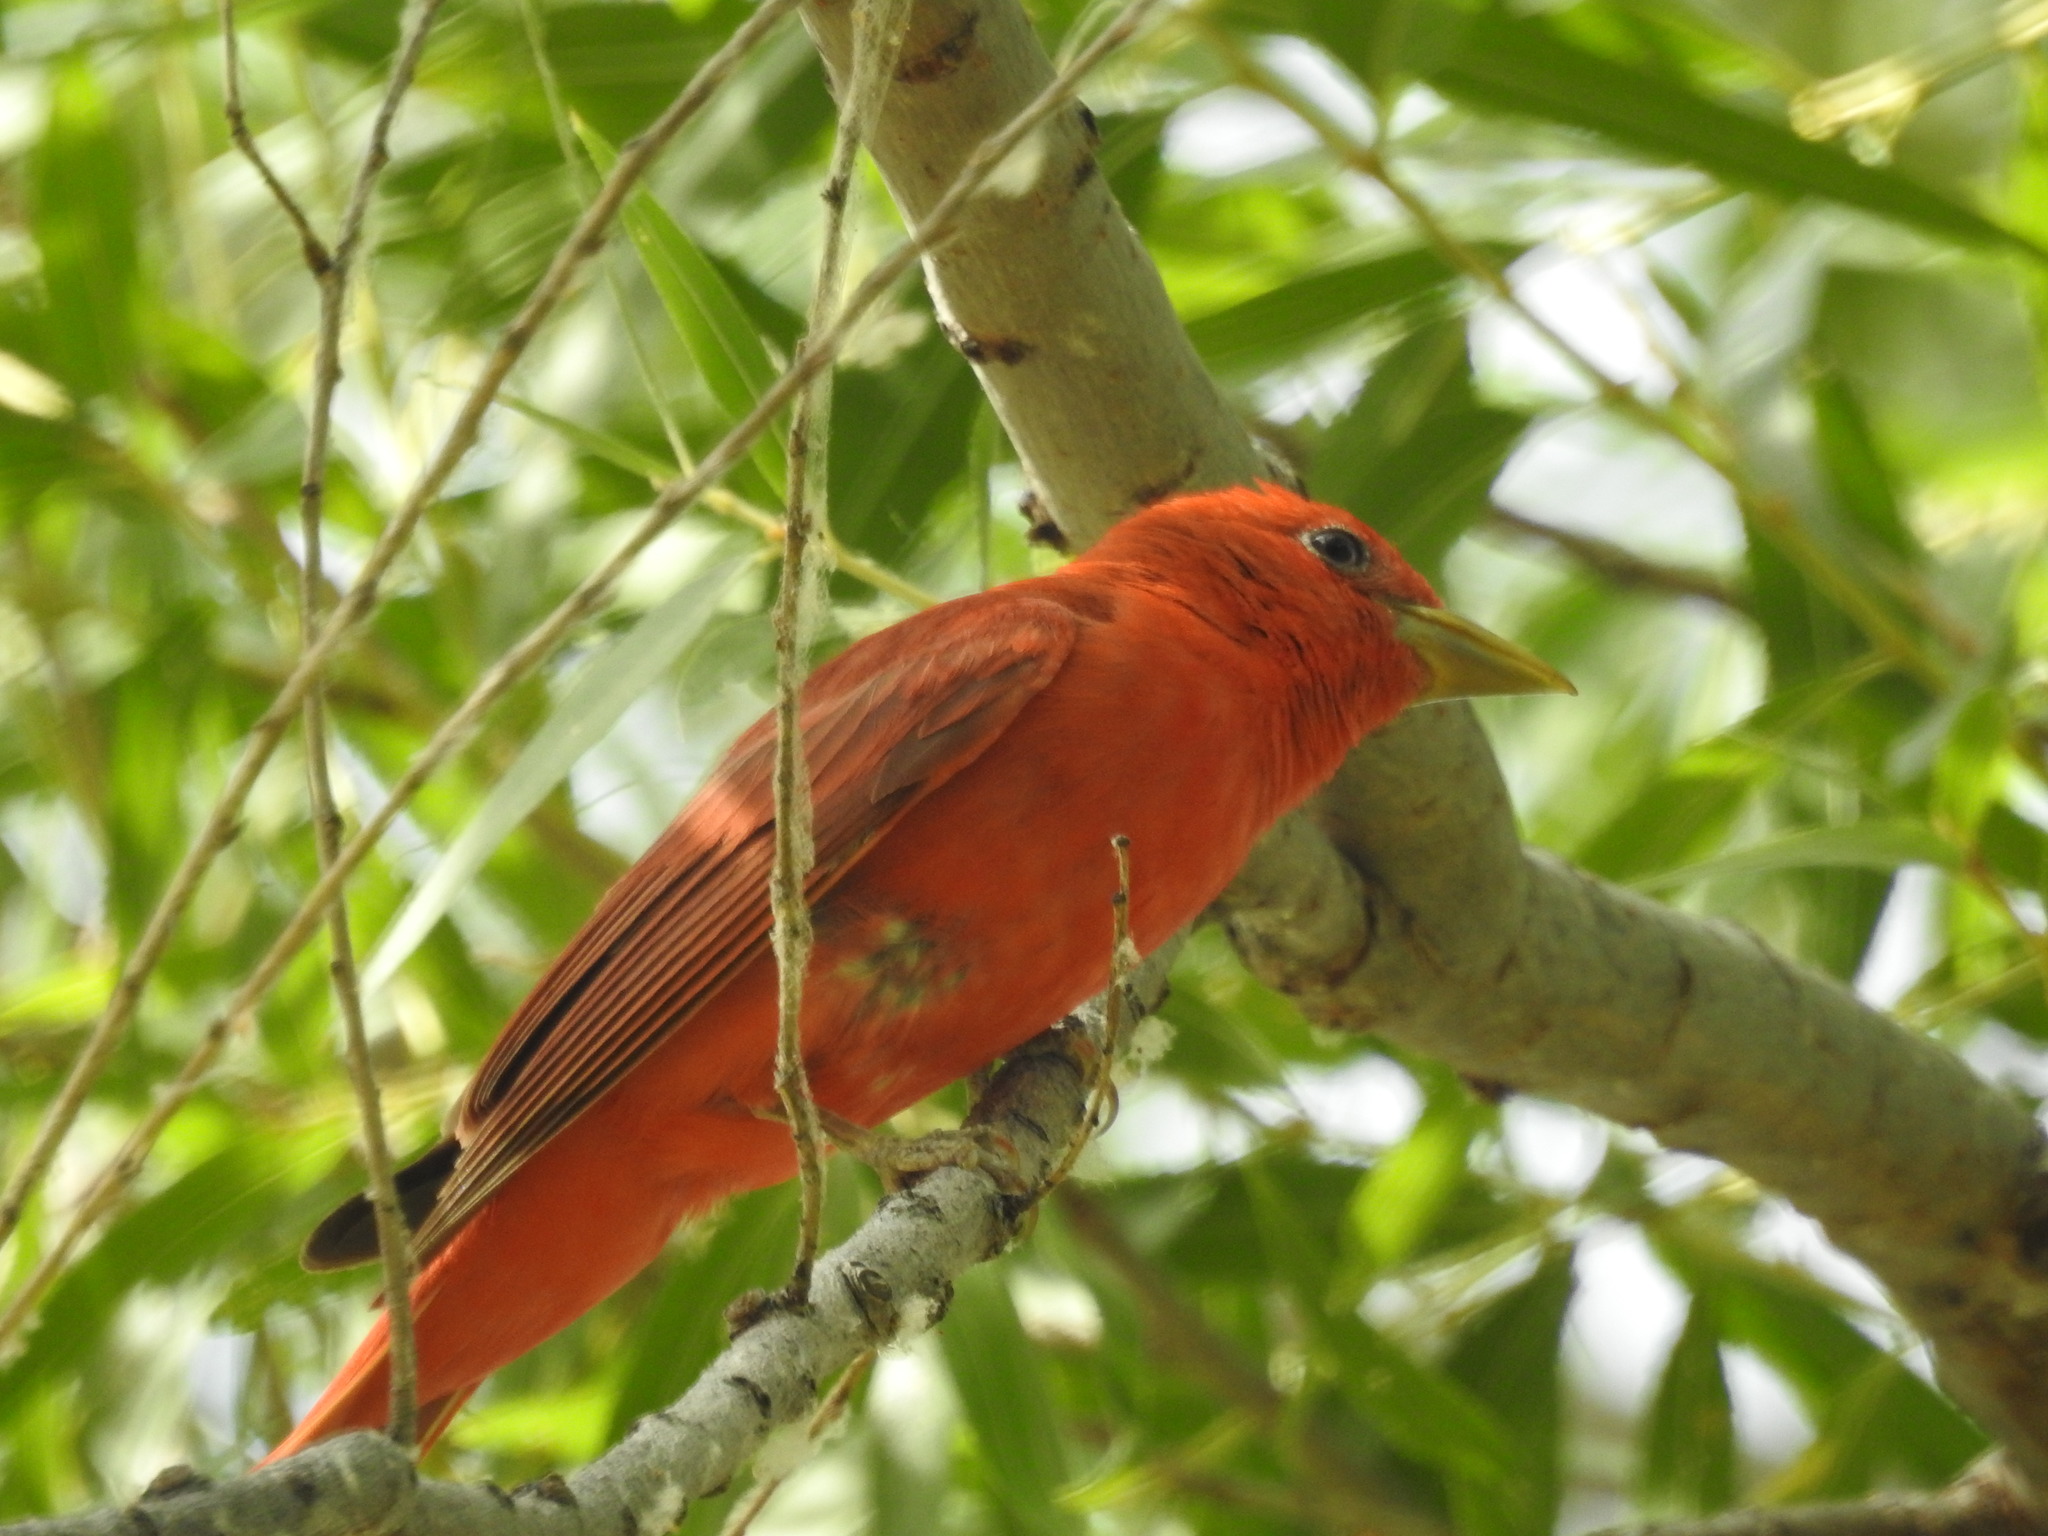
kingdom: Animalia
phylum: Chordata
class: Aves
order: Passeriformes
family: Cardinalidae
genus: Piranga
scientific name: Piranga rubra
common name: Summer tanager
